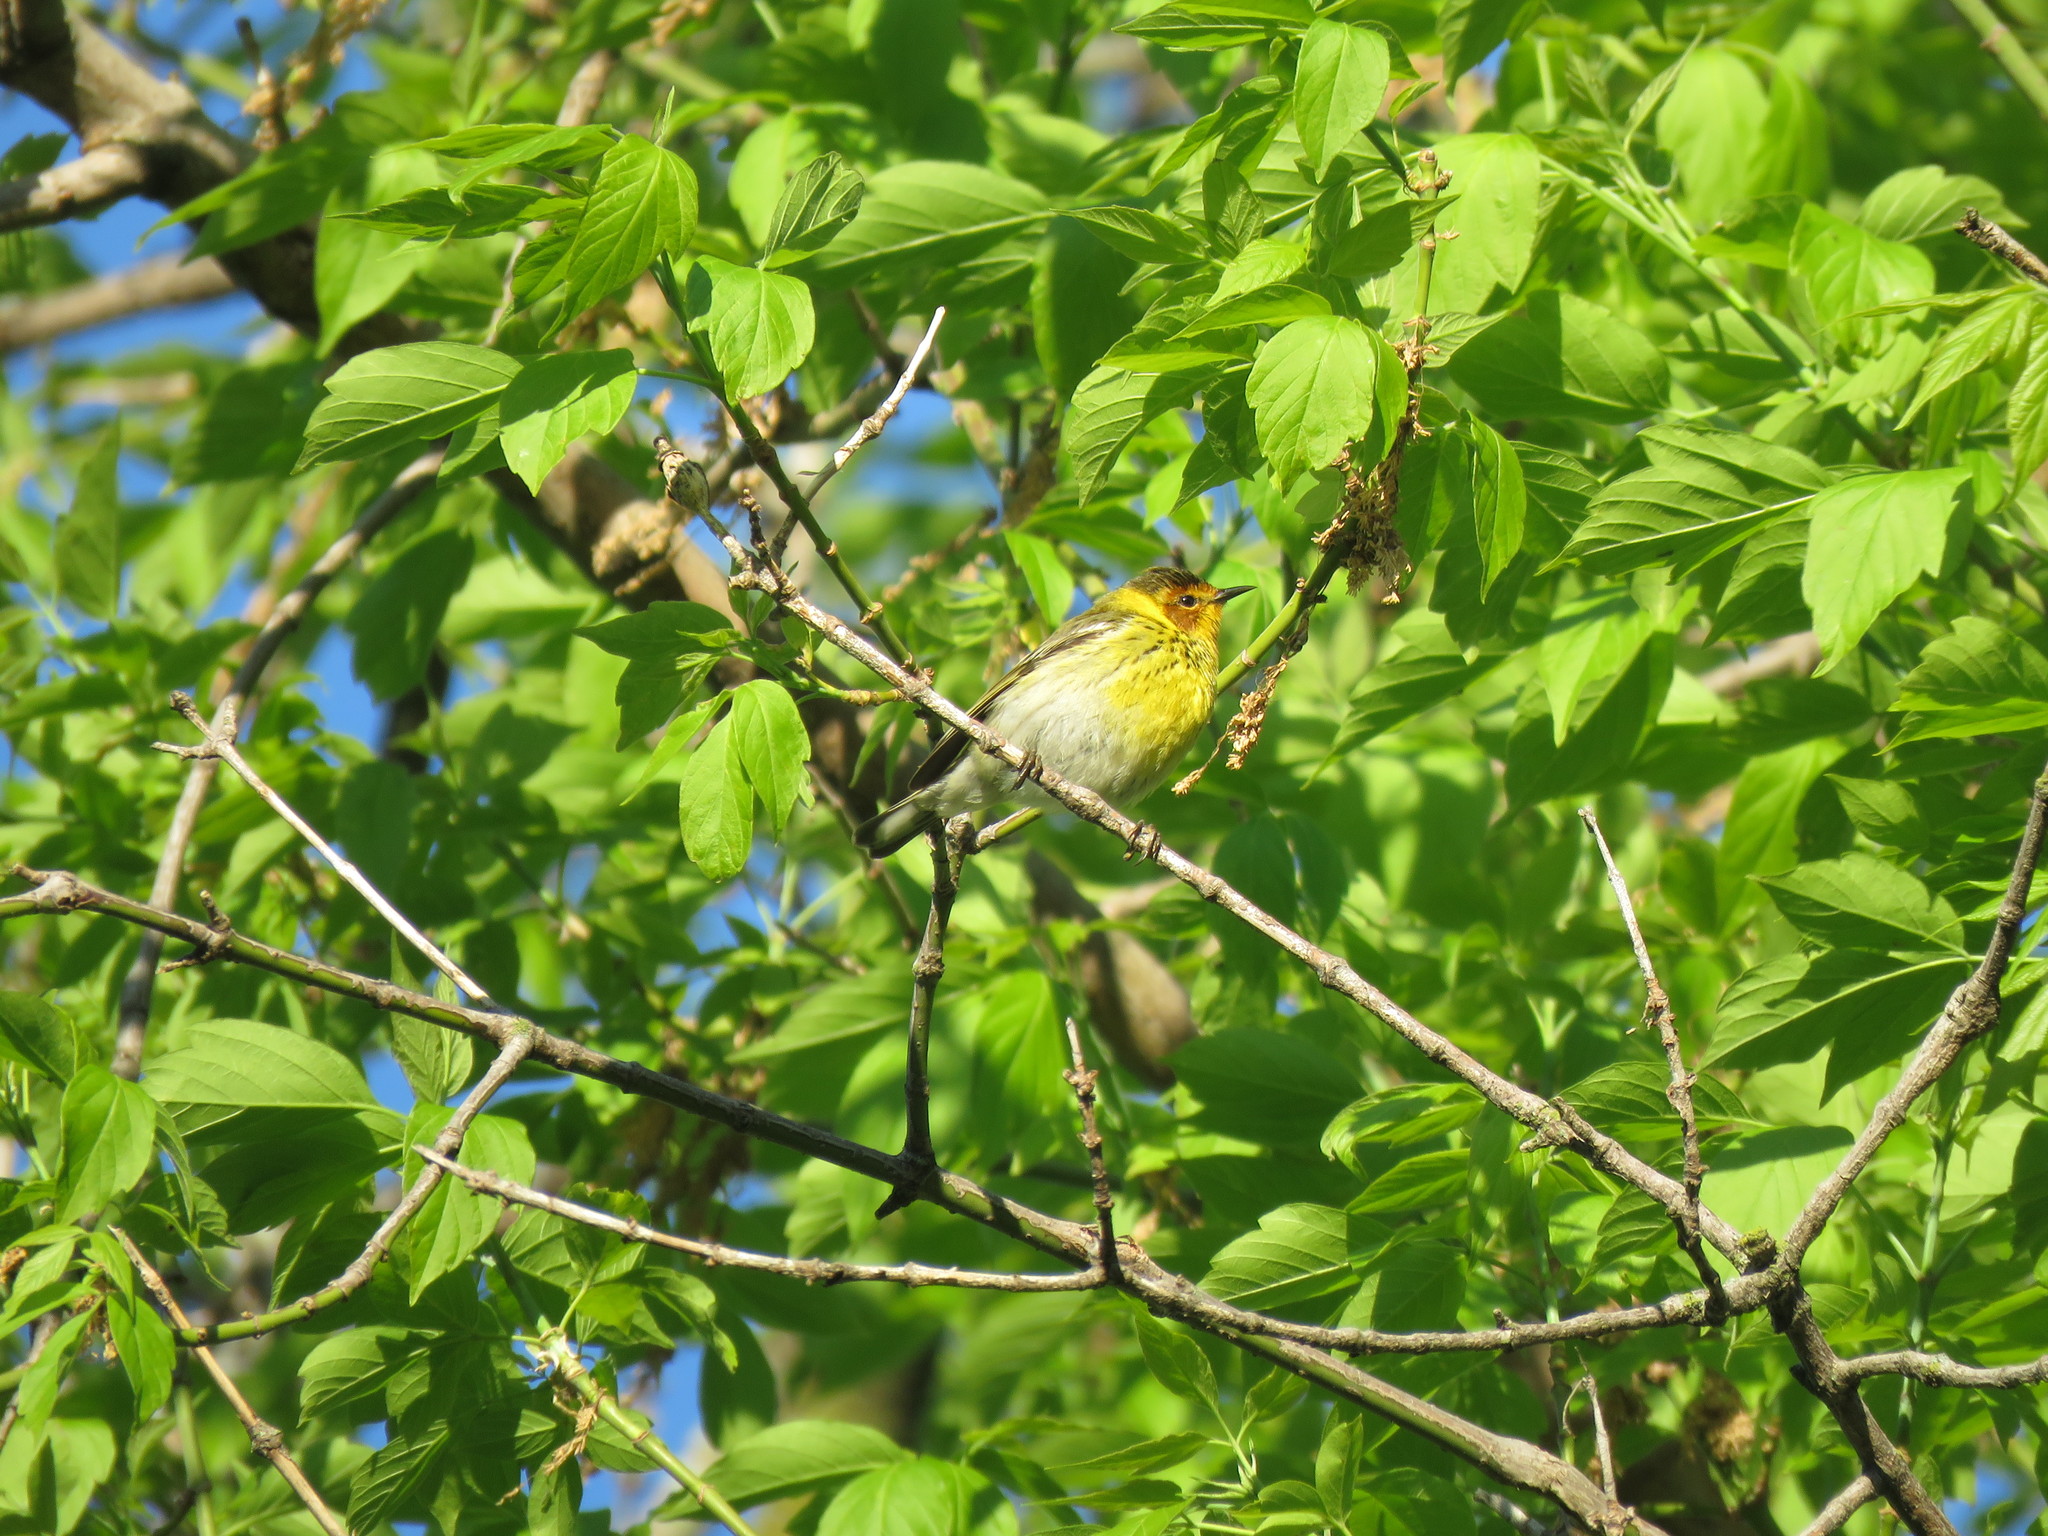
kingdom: Animalia
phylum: Chordata
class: Aves
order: Passeriformes
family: Parulidae
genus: Setophaga
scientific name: Setophaga tigrina
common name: Cape may warbler
